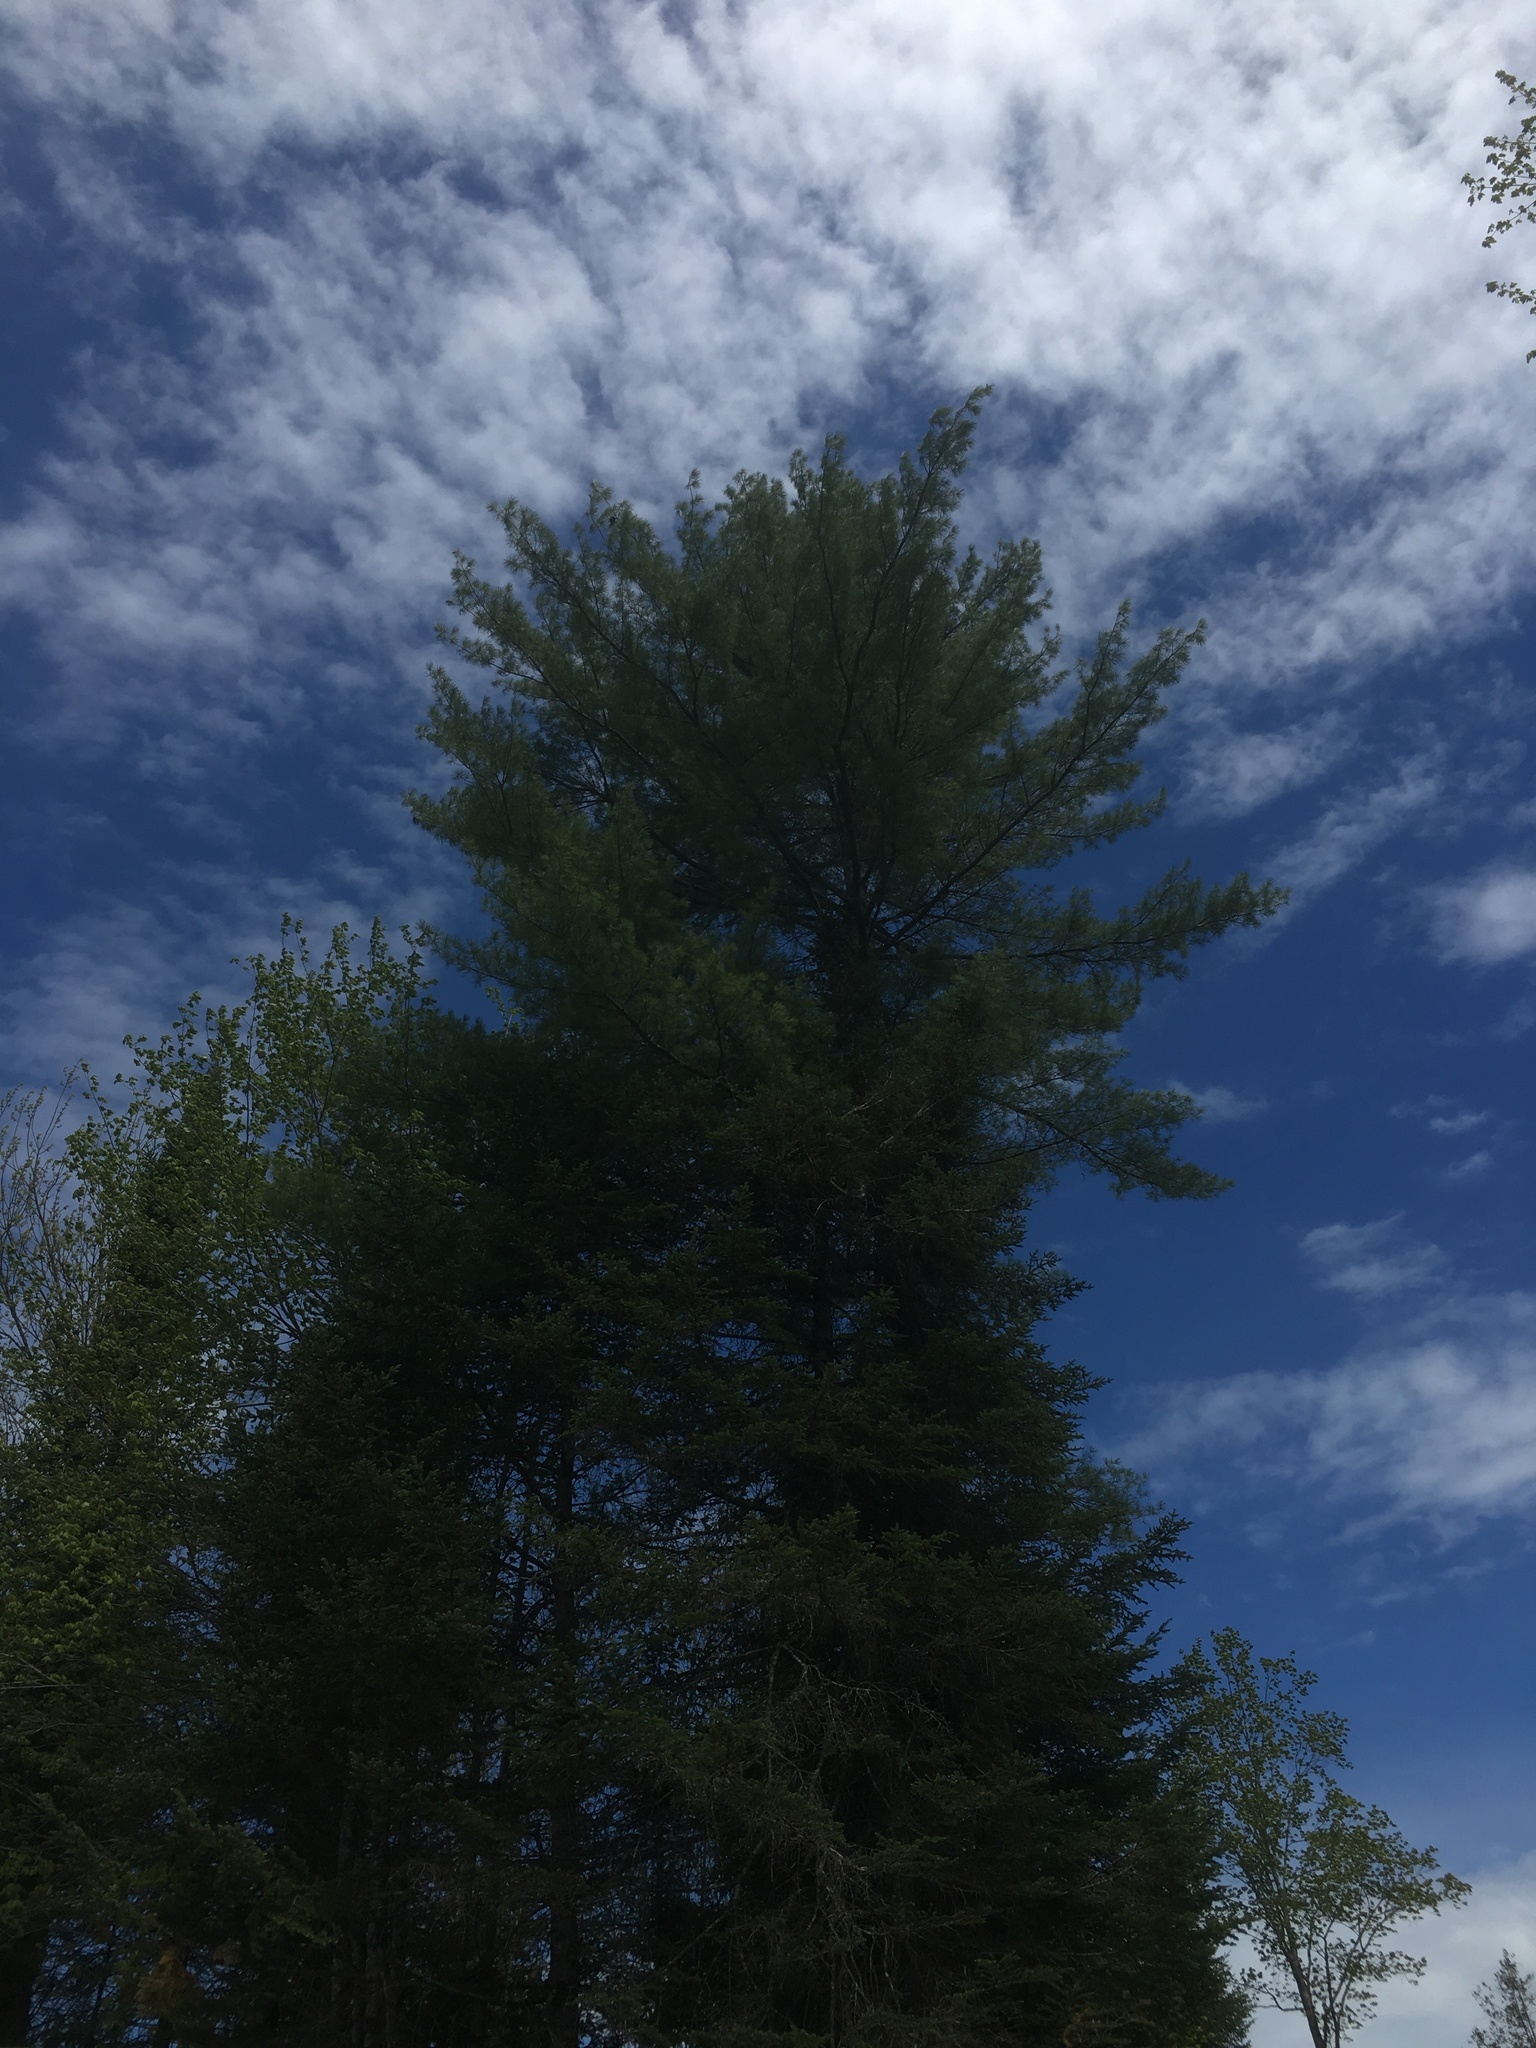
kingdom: Plantae
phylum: Tracheophyta
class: Pinopsida
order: Pinales
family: Pinaceae
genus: Pinus
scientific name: Pinus strobus
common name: Weymouth pine
